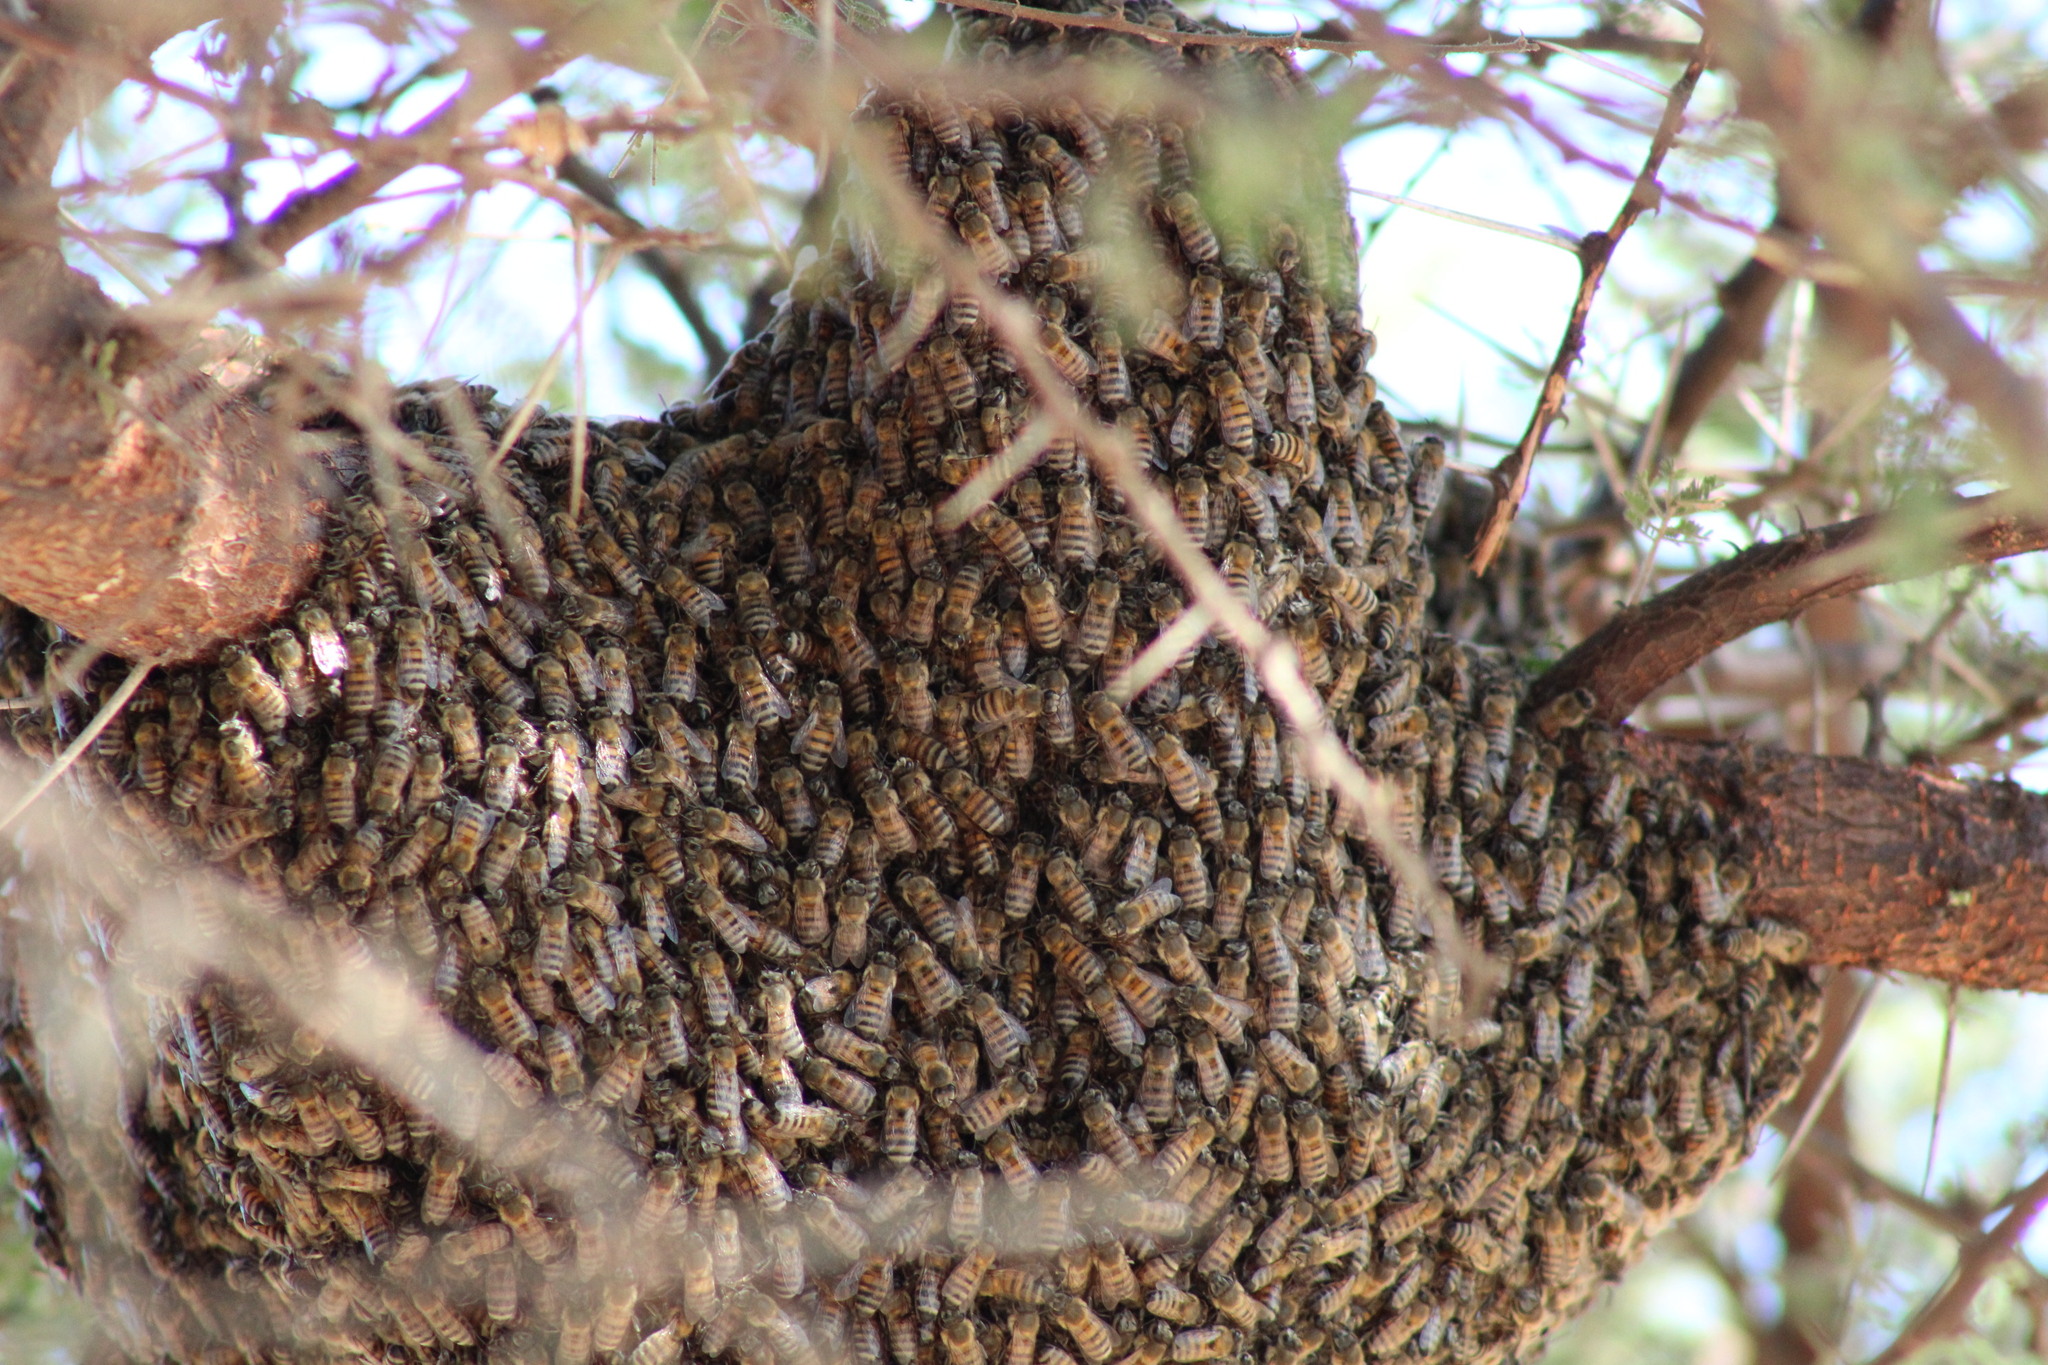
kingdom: Animalia
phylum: Arthropoda
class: Insecta
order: Hymenoptera
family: Apidae
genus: Apis
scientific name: Apis mellifera
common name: Honey bee
